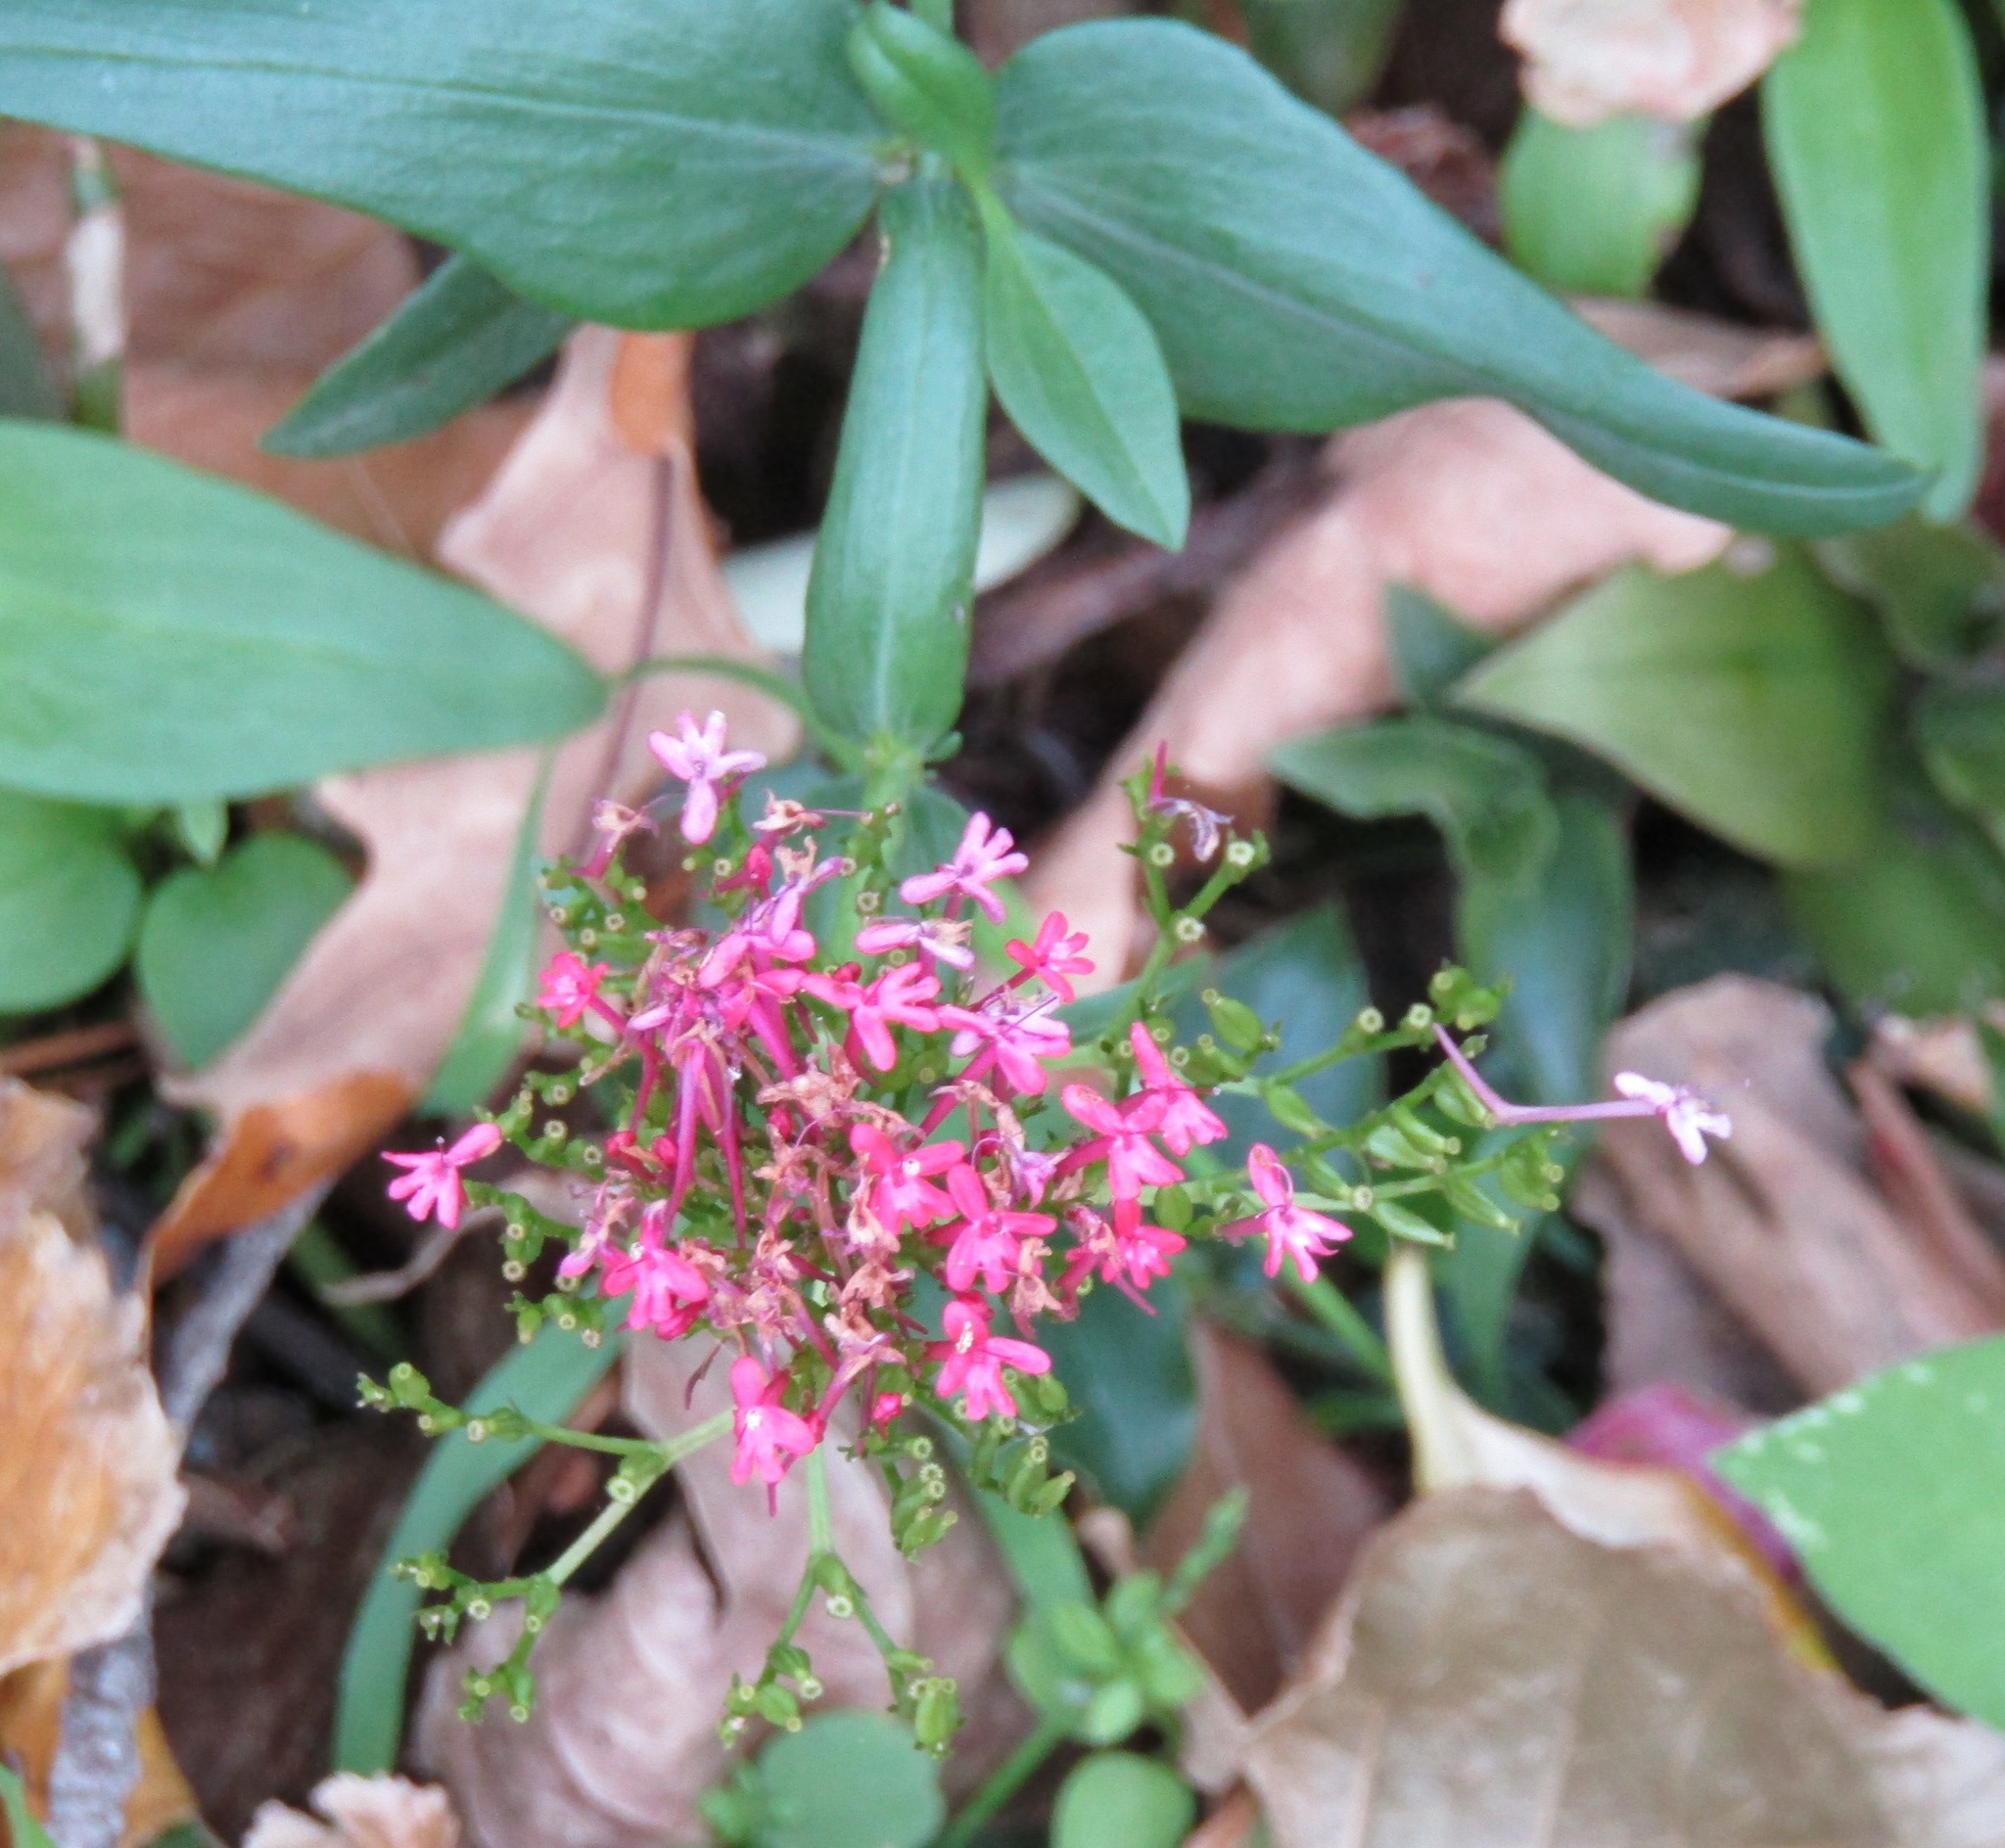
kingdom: Plantae
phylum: Tracheophyta
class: Magnoliopsida
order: Dipsacales
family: Caprifoliaceae
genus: Centranthus
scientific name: Centranthus ruber
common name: Red valerian
